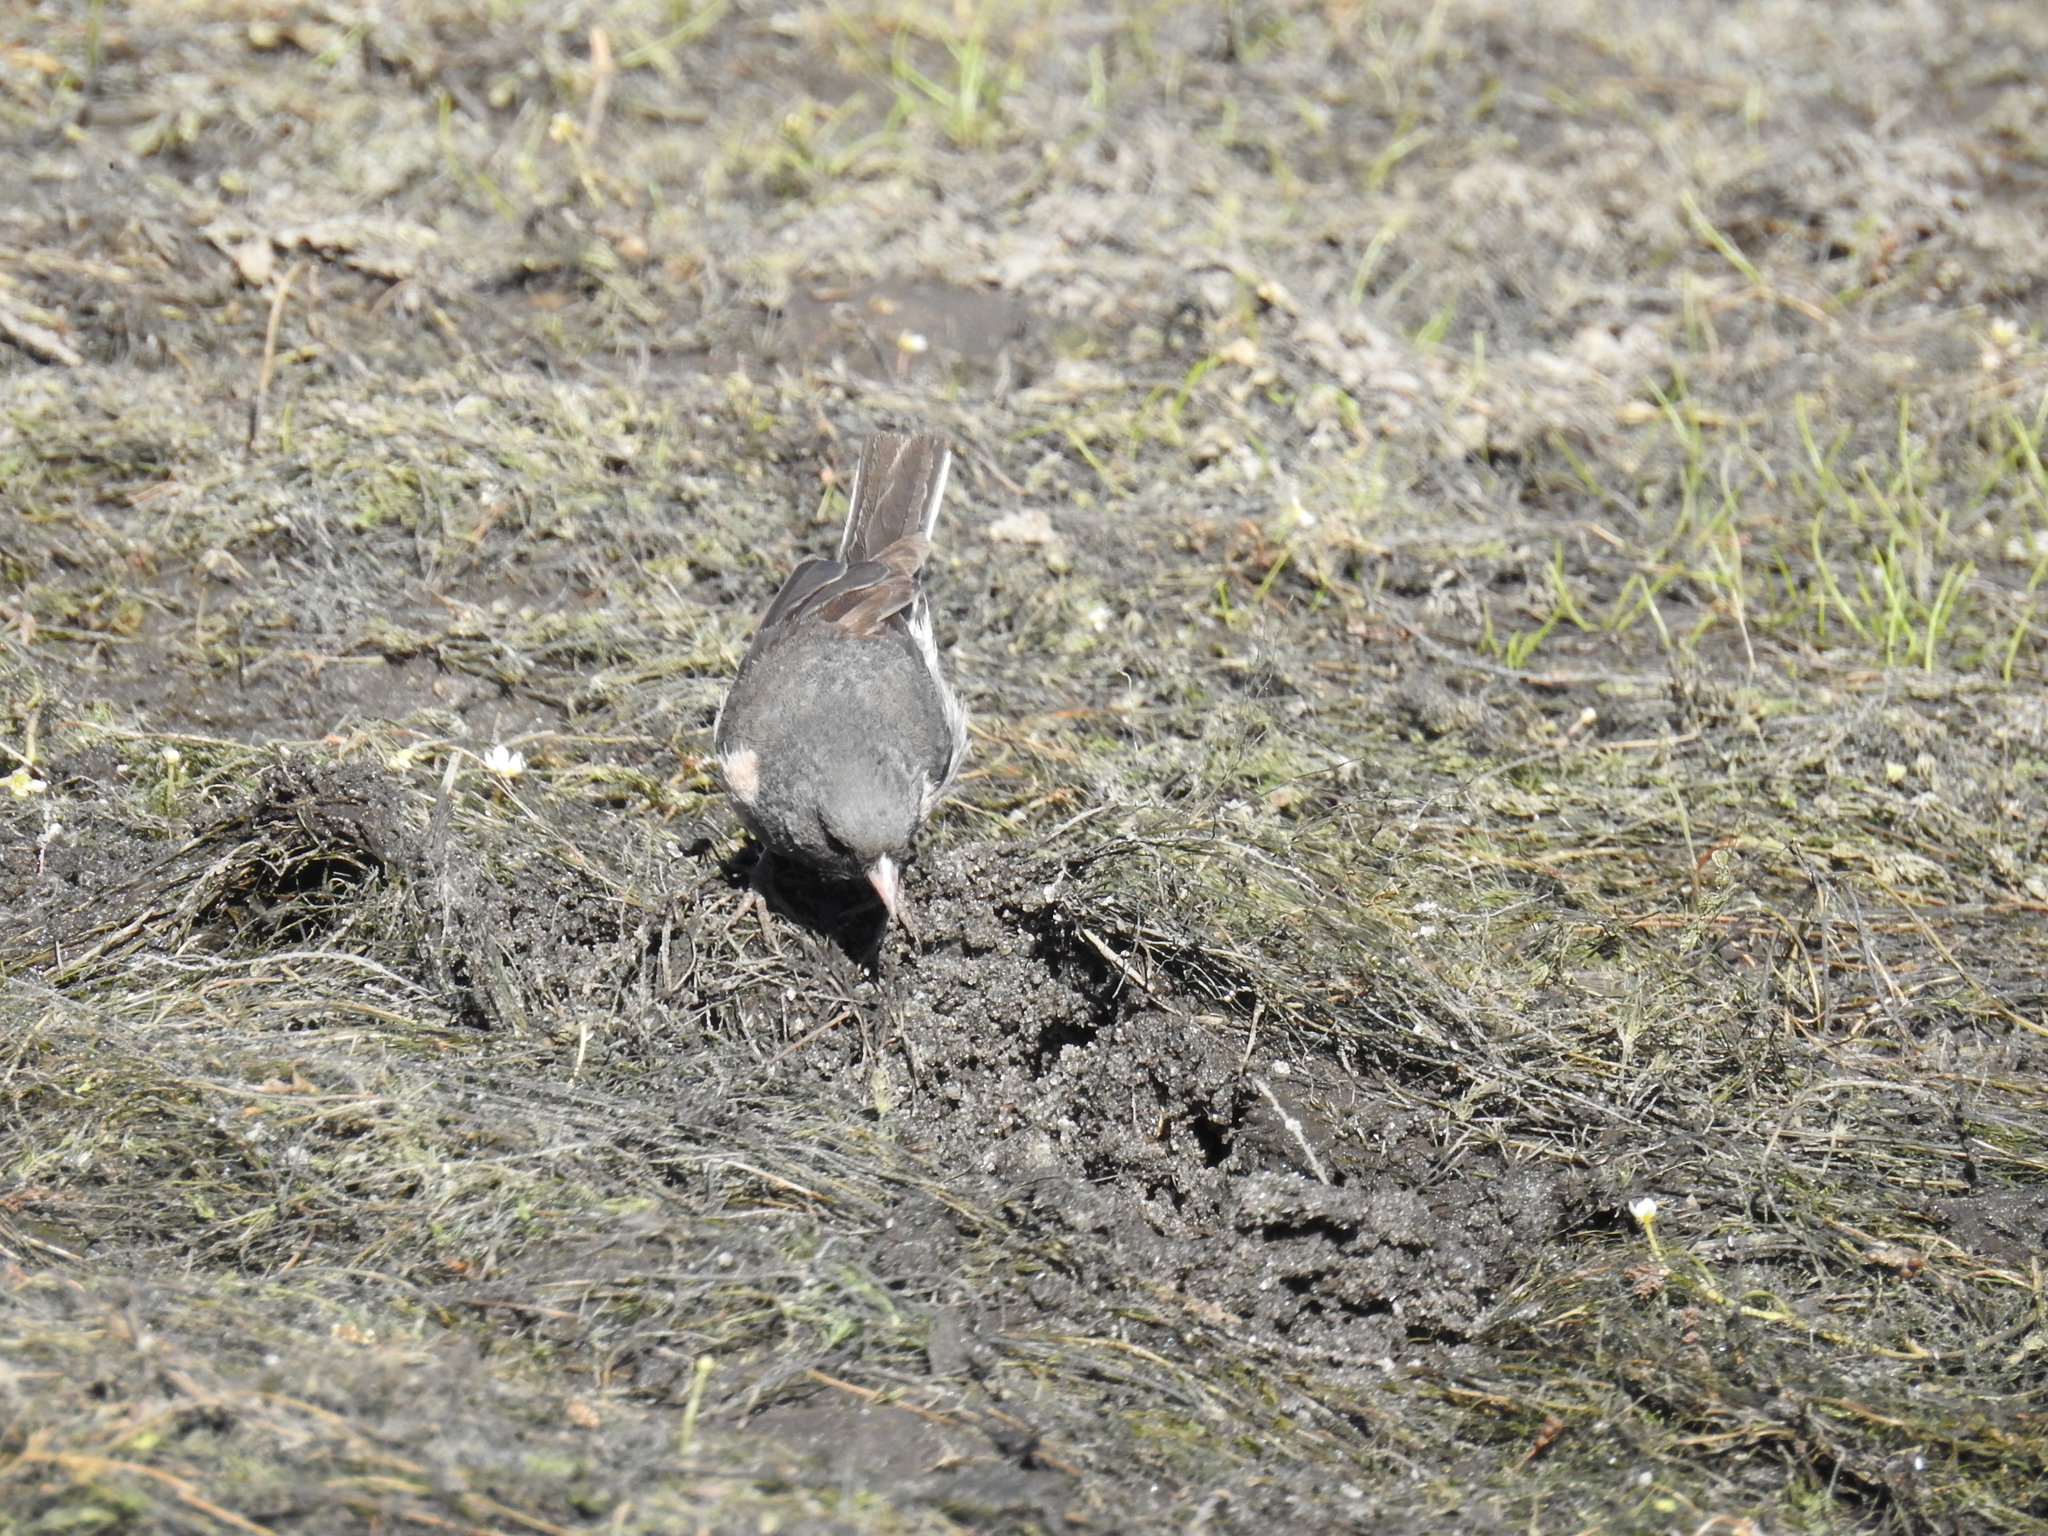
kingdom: Animalia
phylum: Chordata
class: Aves
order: Passeriformes
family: Passerellidae
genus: Junco
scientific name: Junco hyemalis
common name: Dark-eyed junco
